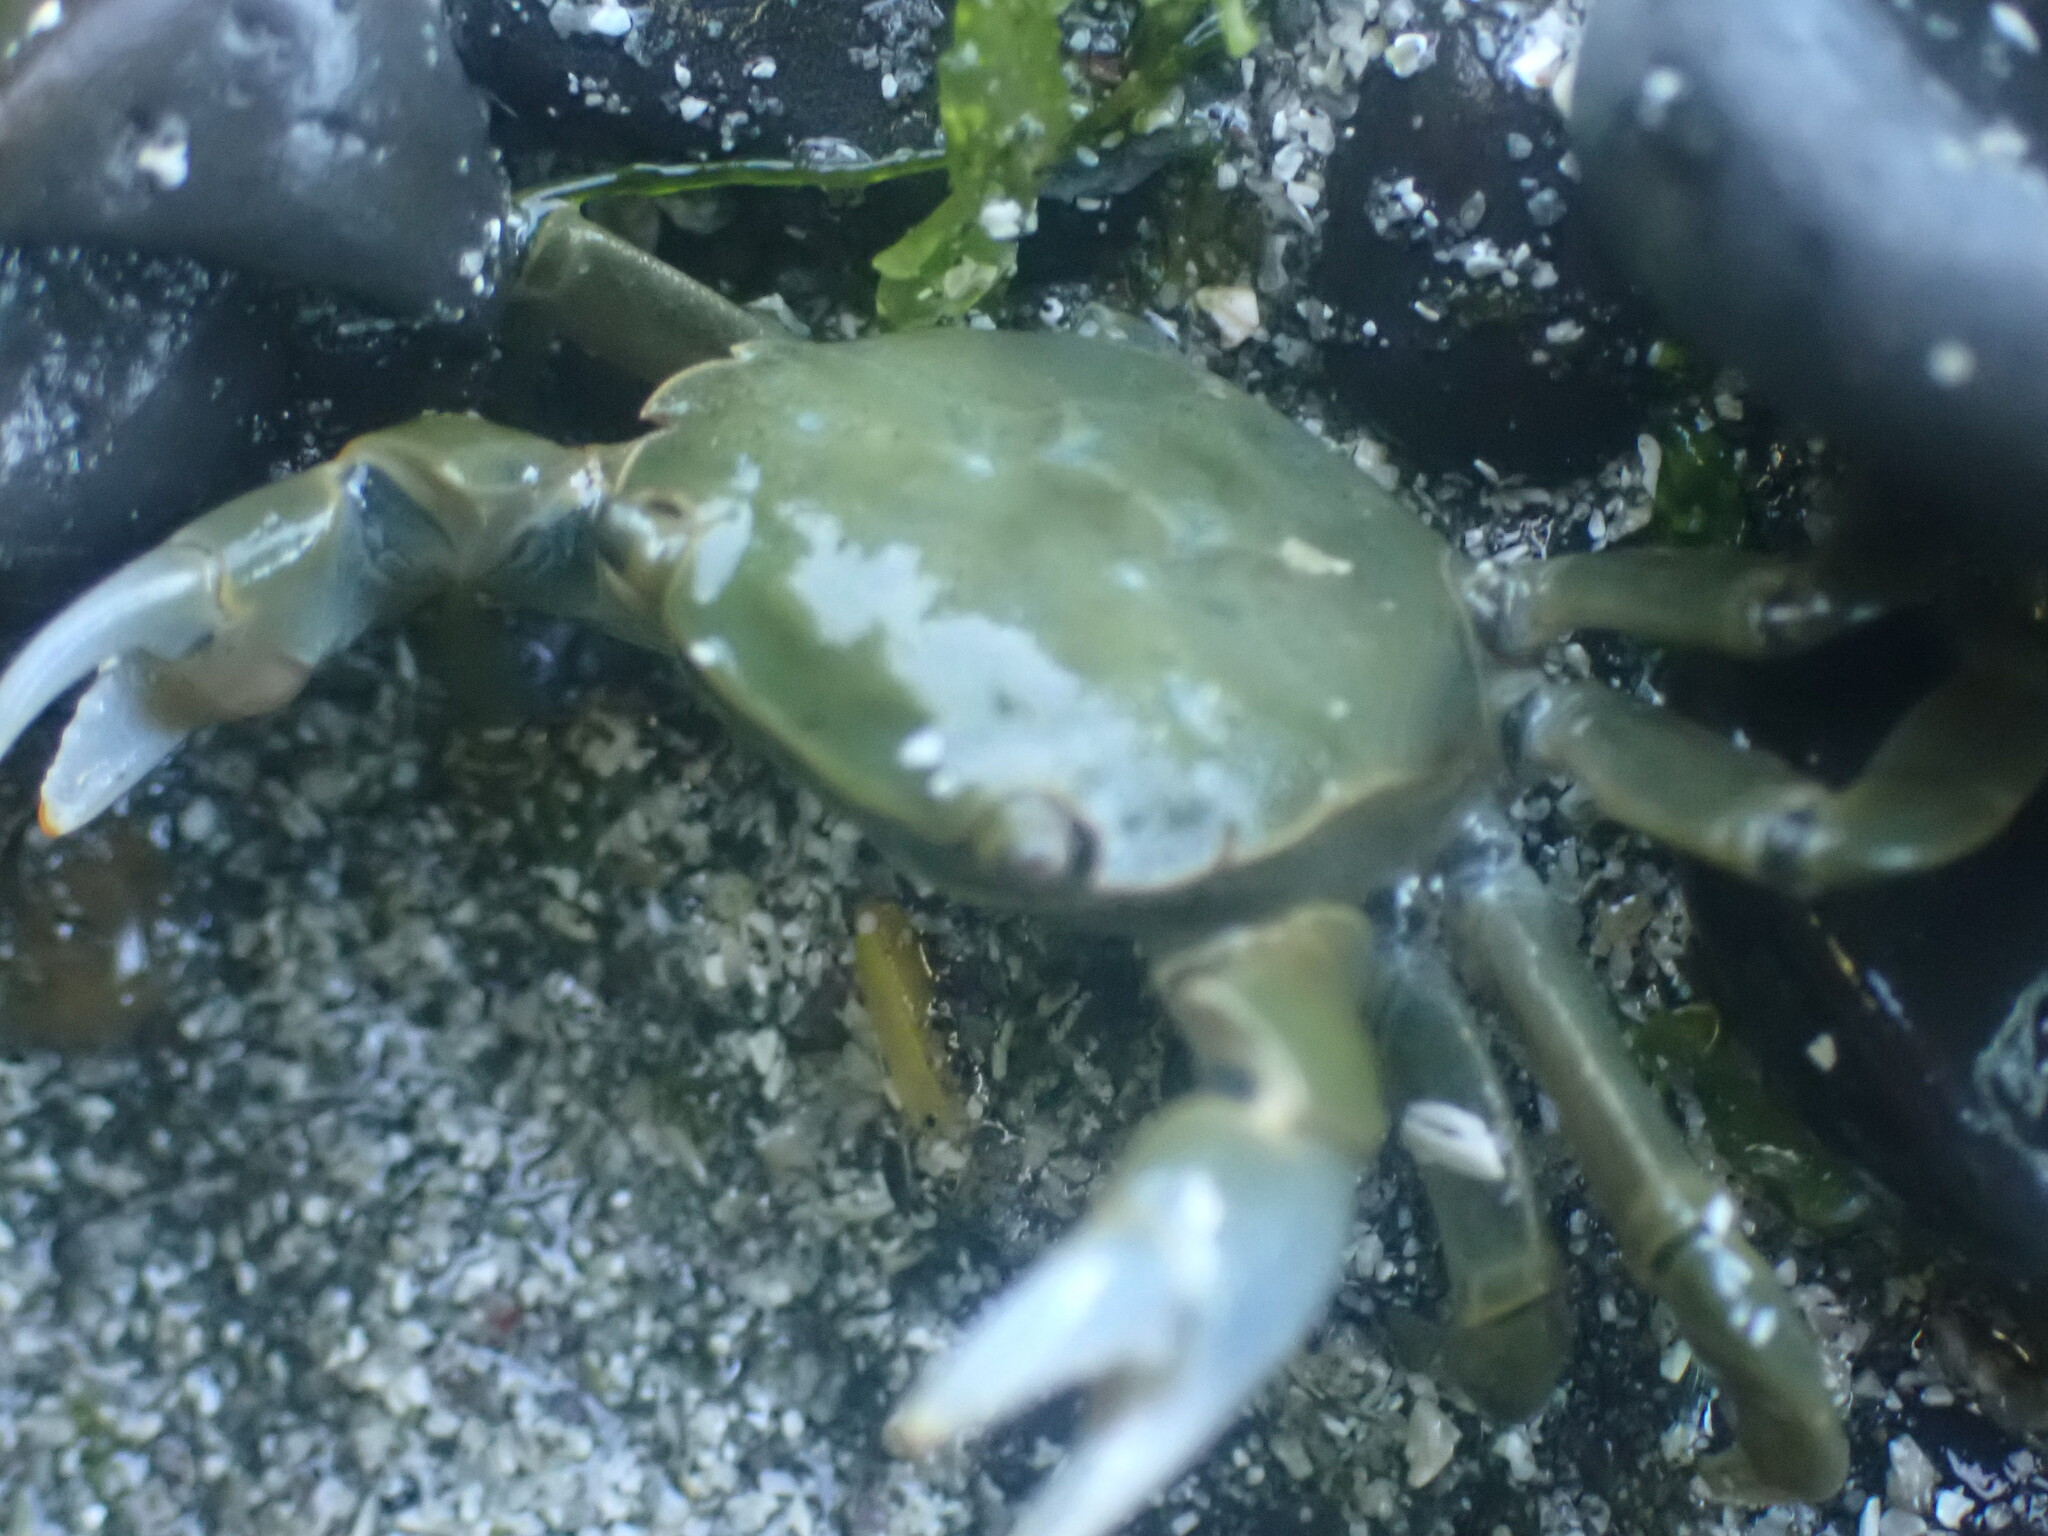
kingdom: Animalia
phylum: Arthropoda
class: Malacostraca
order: Decapoda
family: Varunidae
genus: Hemigrapsus
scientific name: Hemigrapsus nudus
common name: Purple shore crab
